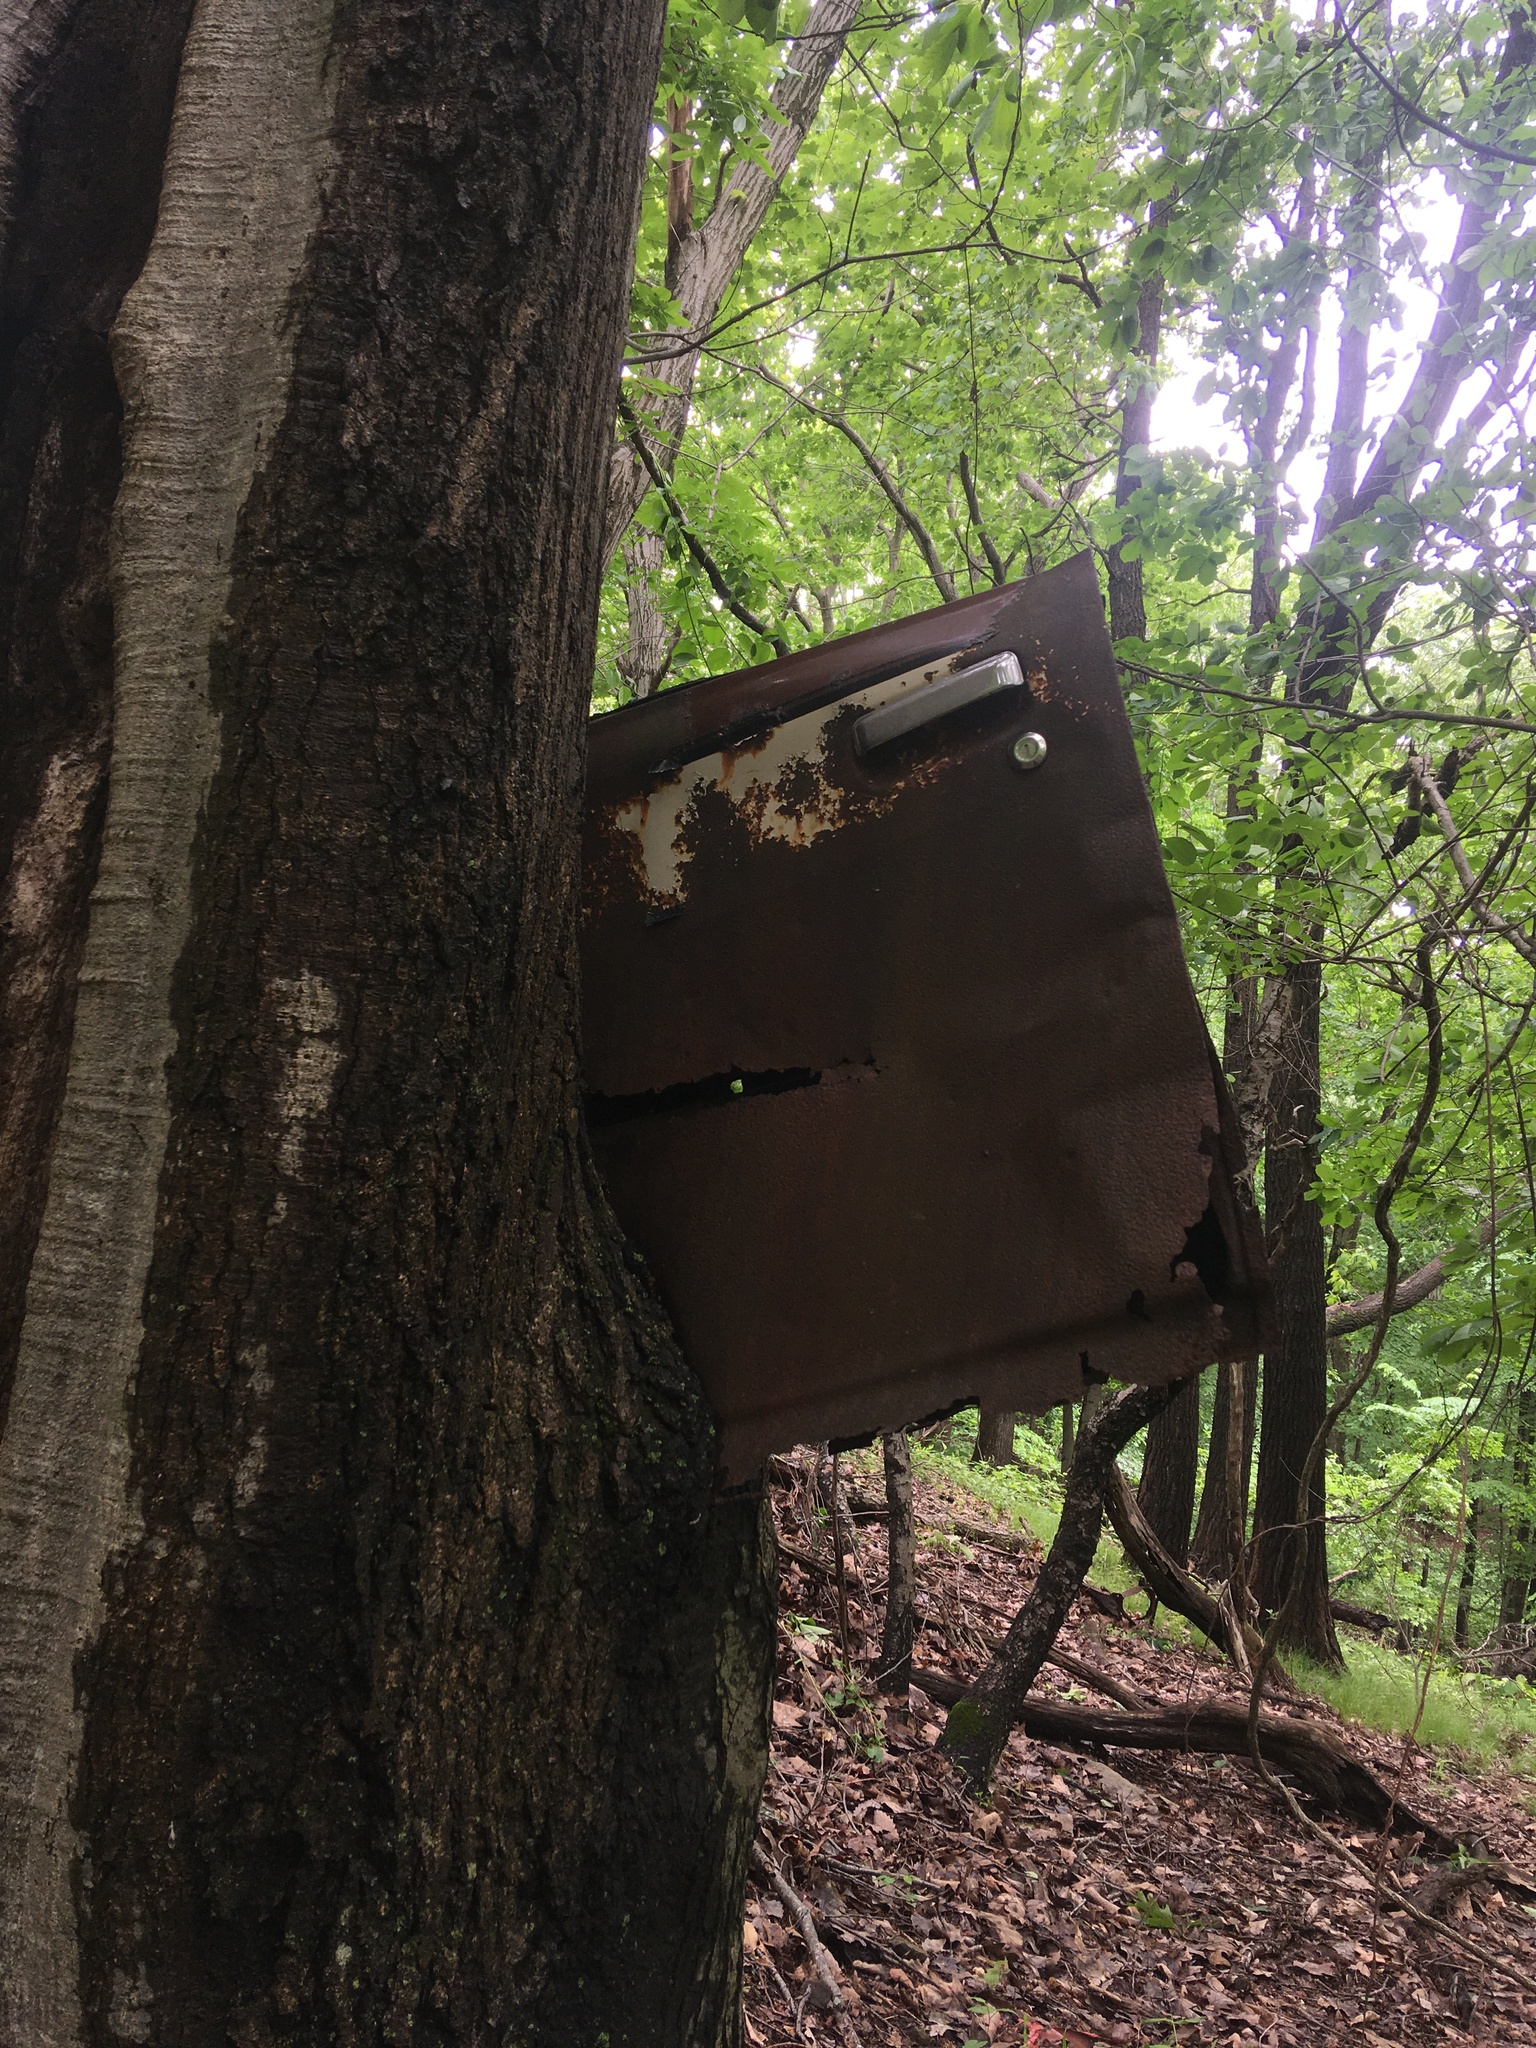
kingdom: Plantae
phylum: Tracheophyta
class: Magnoliopsida
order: Fagales
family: Fagaceae
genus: Quercus
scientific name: Quercus rubra
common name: Red oak
